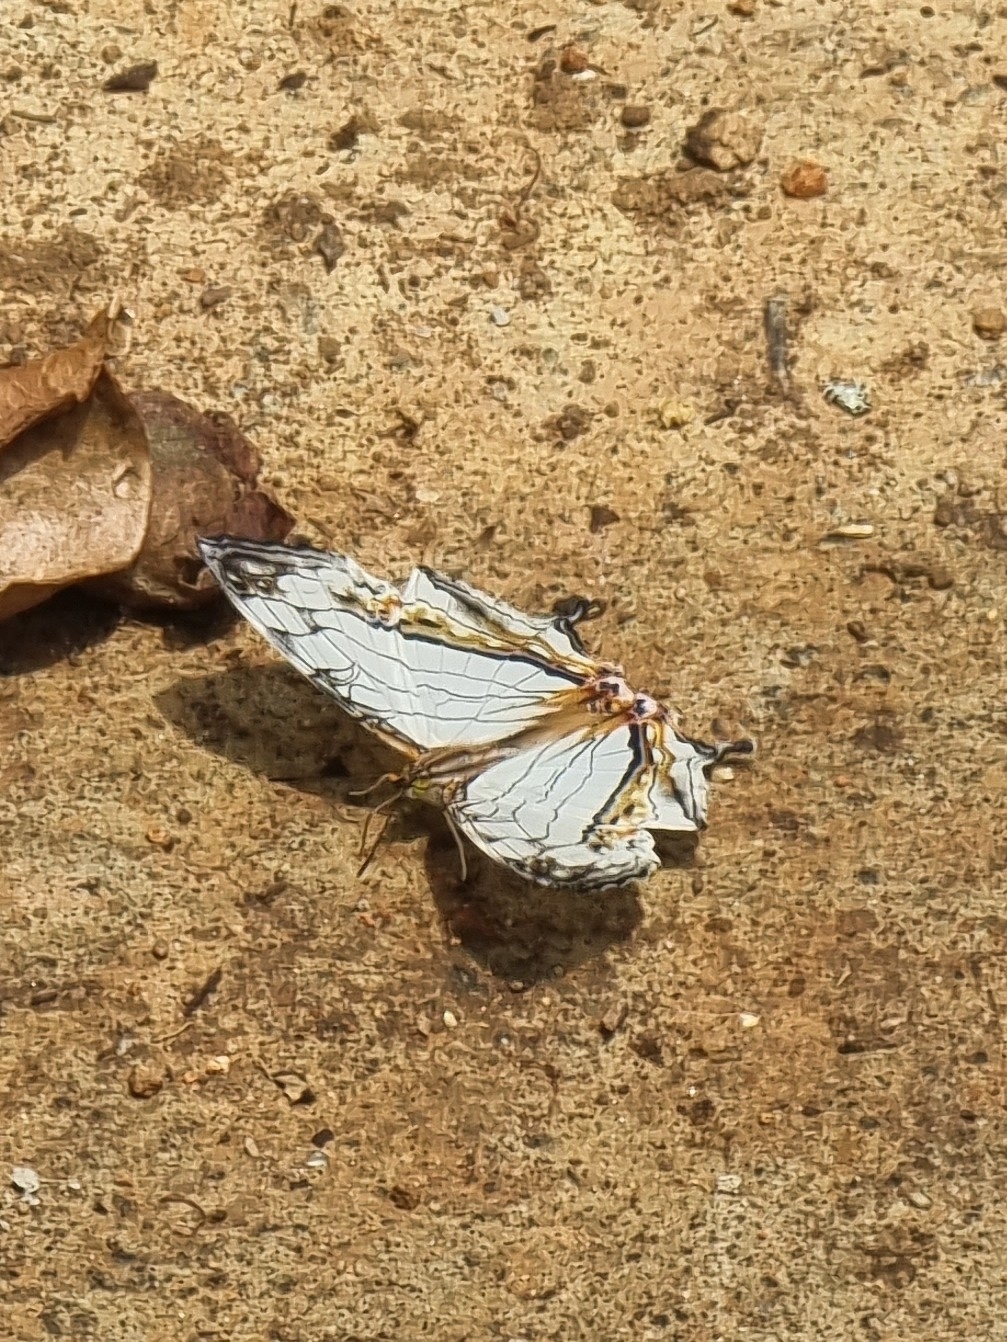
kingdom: Animalia
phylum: Arthropoda
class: Insecta
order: Lepidoptera
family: Nymphalidae
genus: Cyrestis
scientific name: Cyrestis thyodamas
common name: Common mapwing
